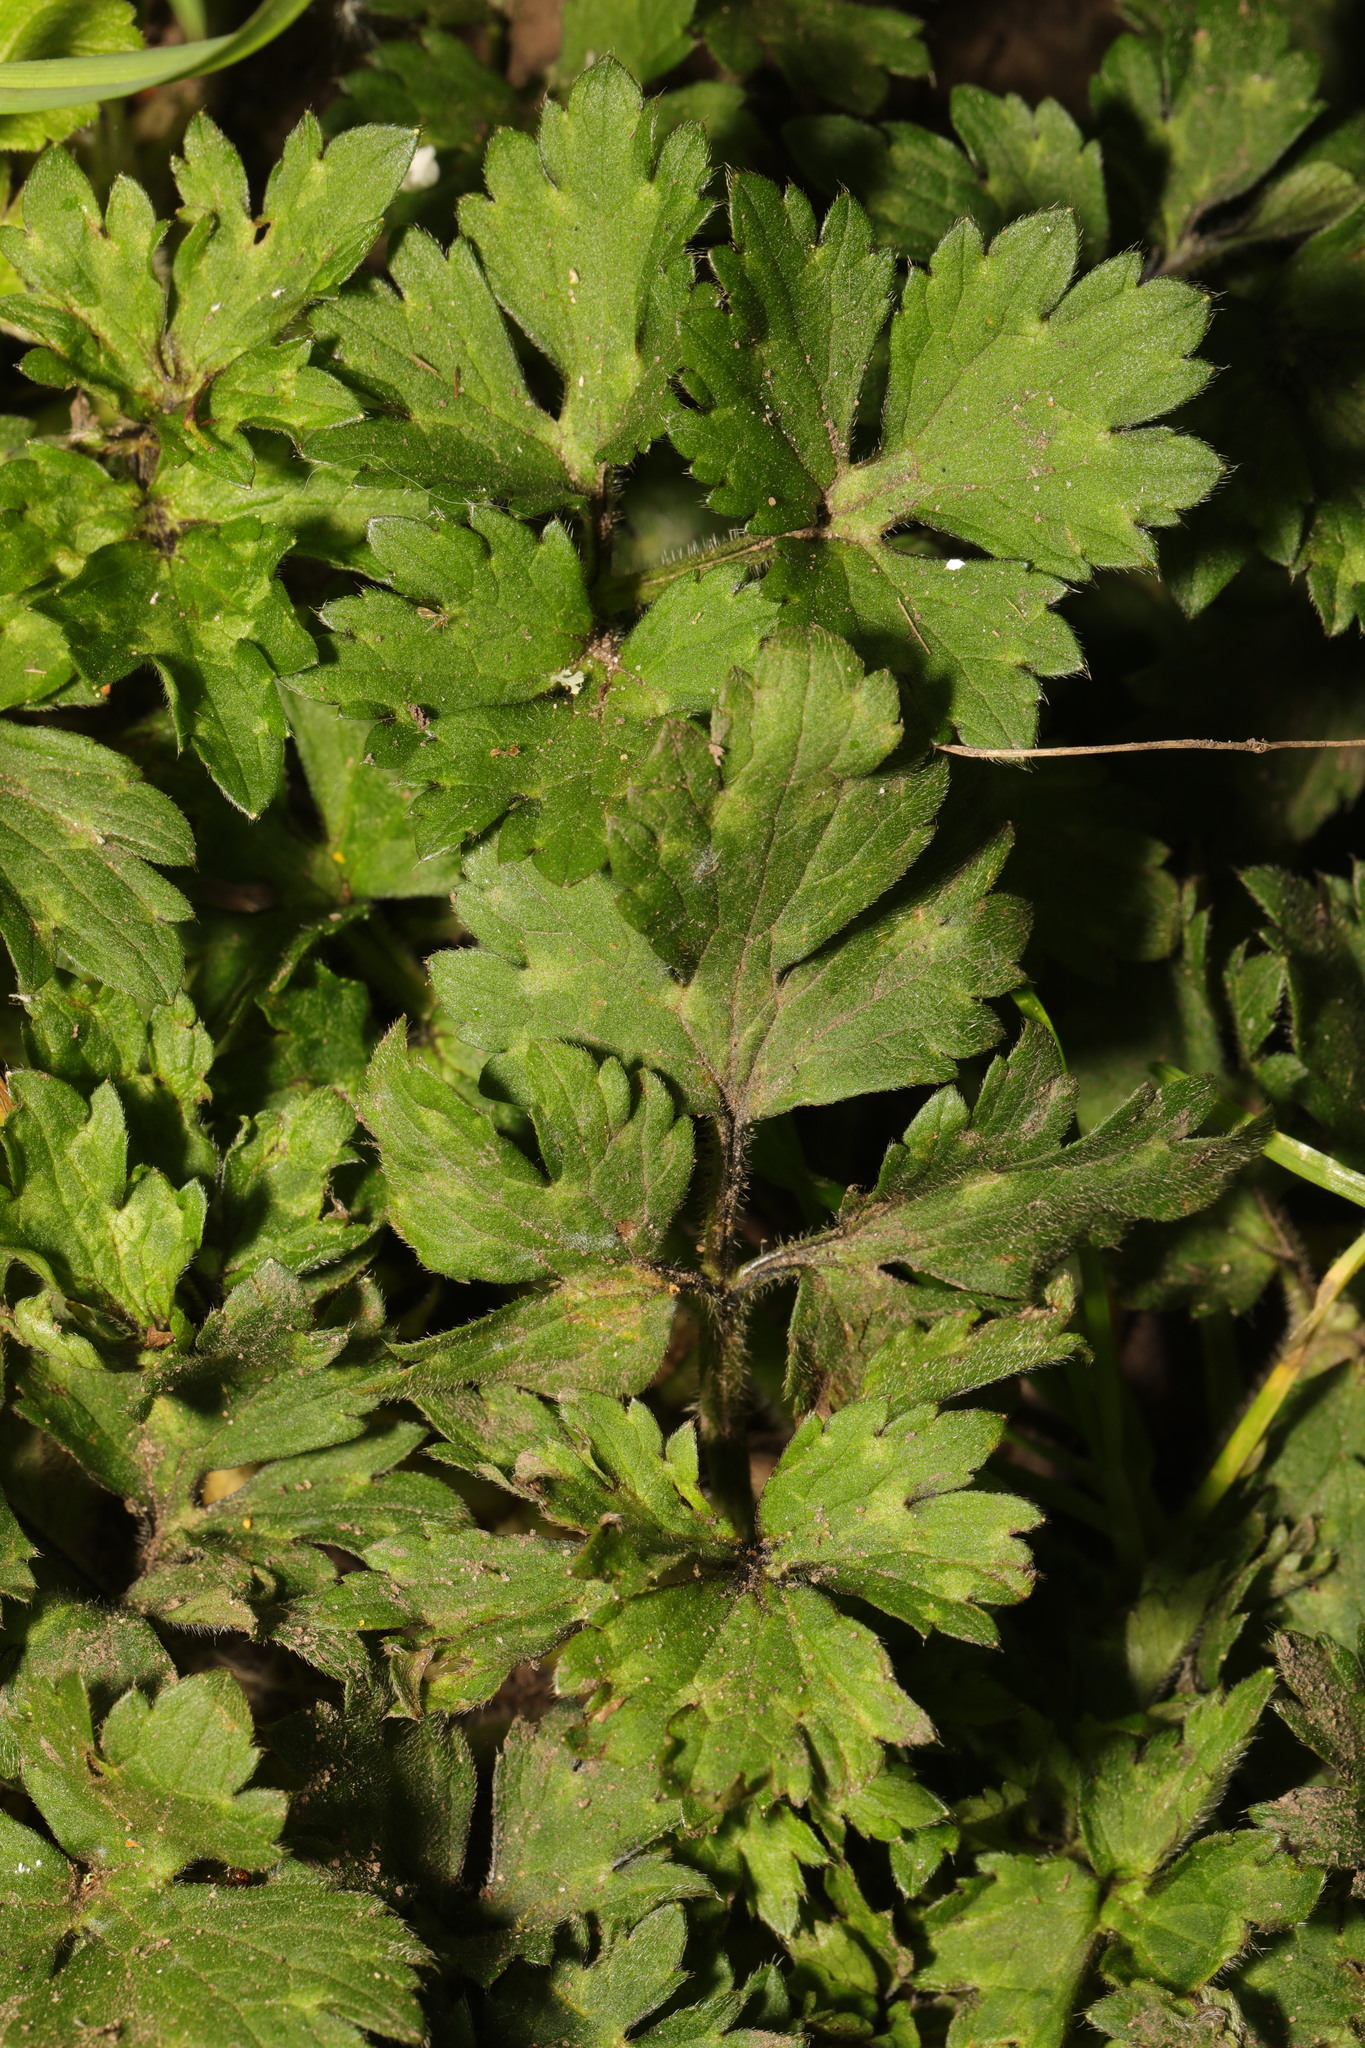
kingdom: Plantae
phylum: Tracheophyta
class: Magnoliopsida
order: Ranunculales
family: Ranunculaceae
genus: Ranunculus
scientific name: Ranunculus repens
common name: Creeping buttercup
